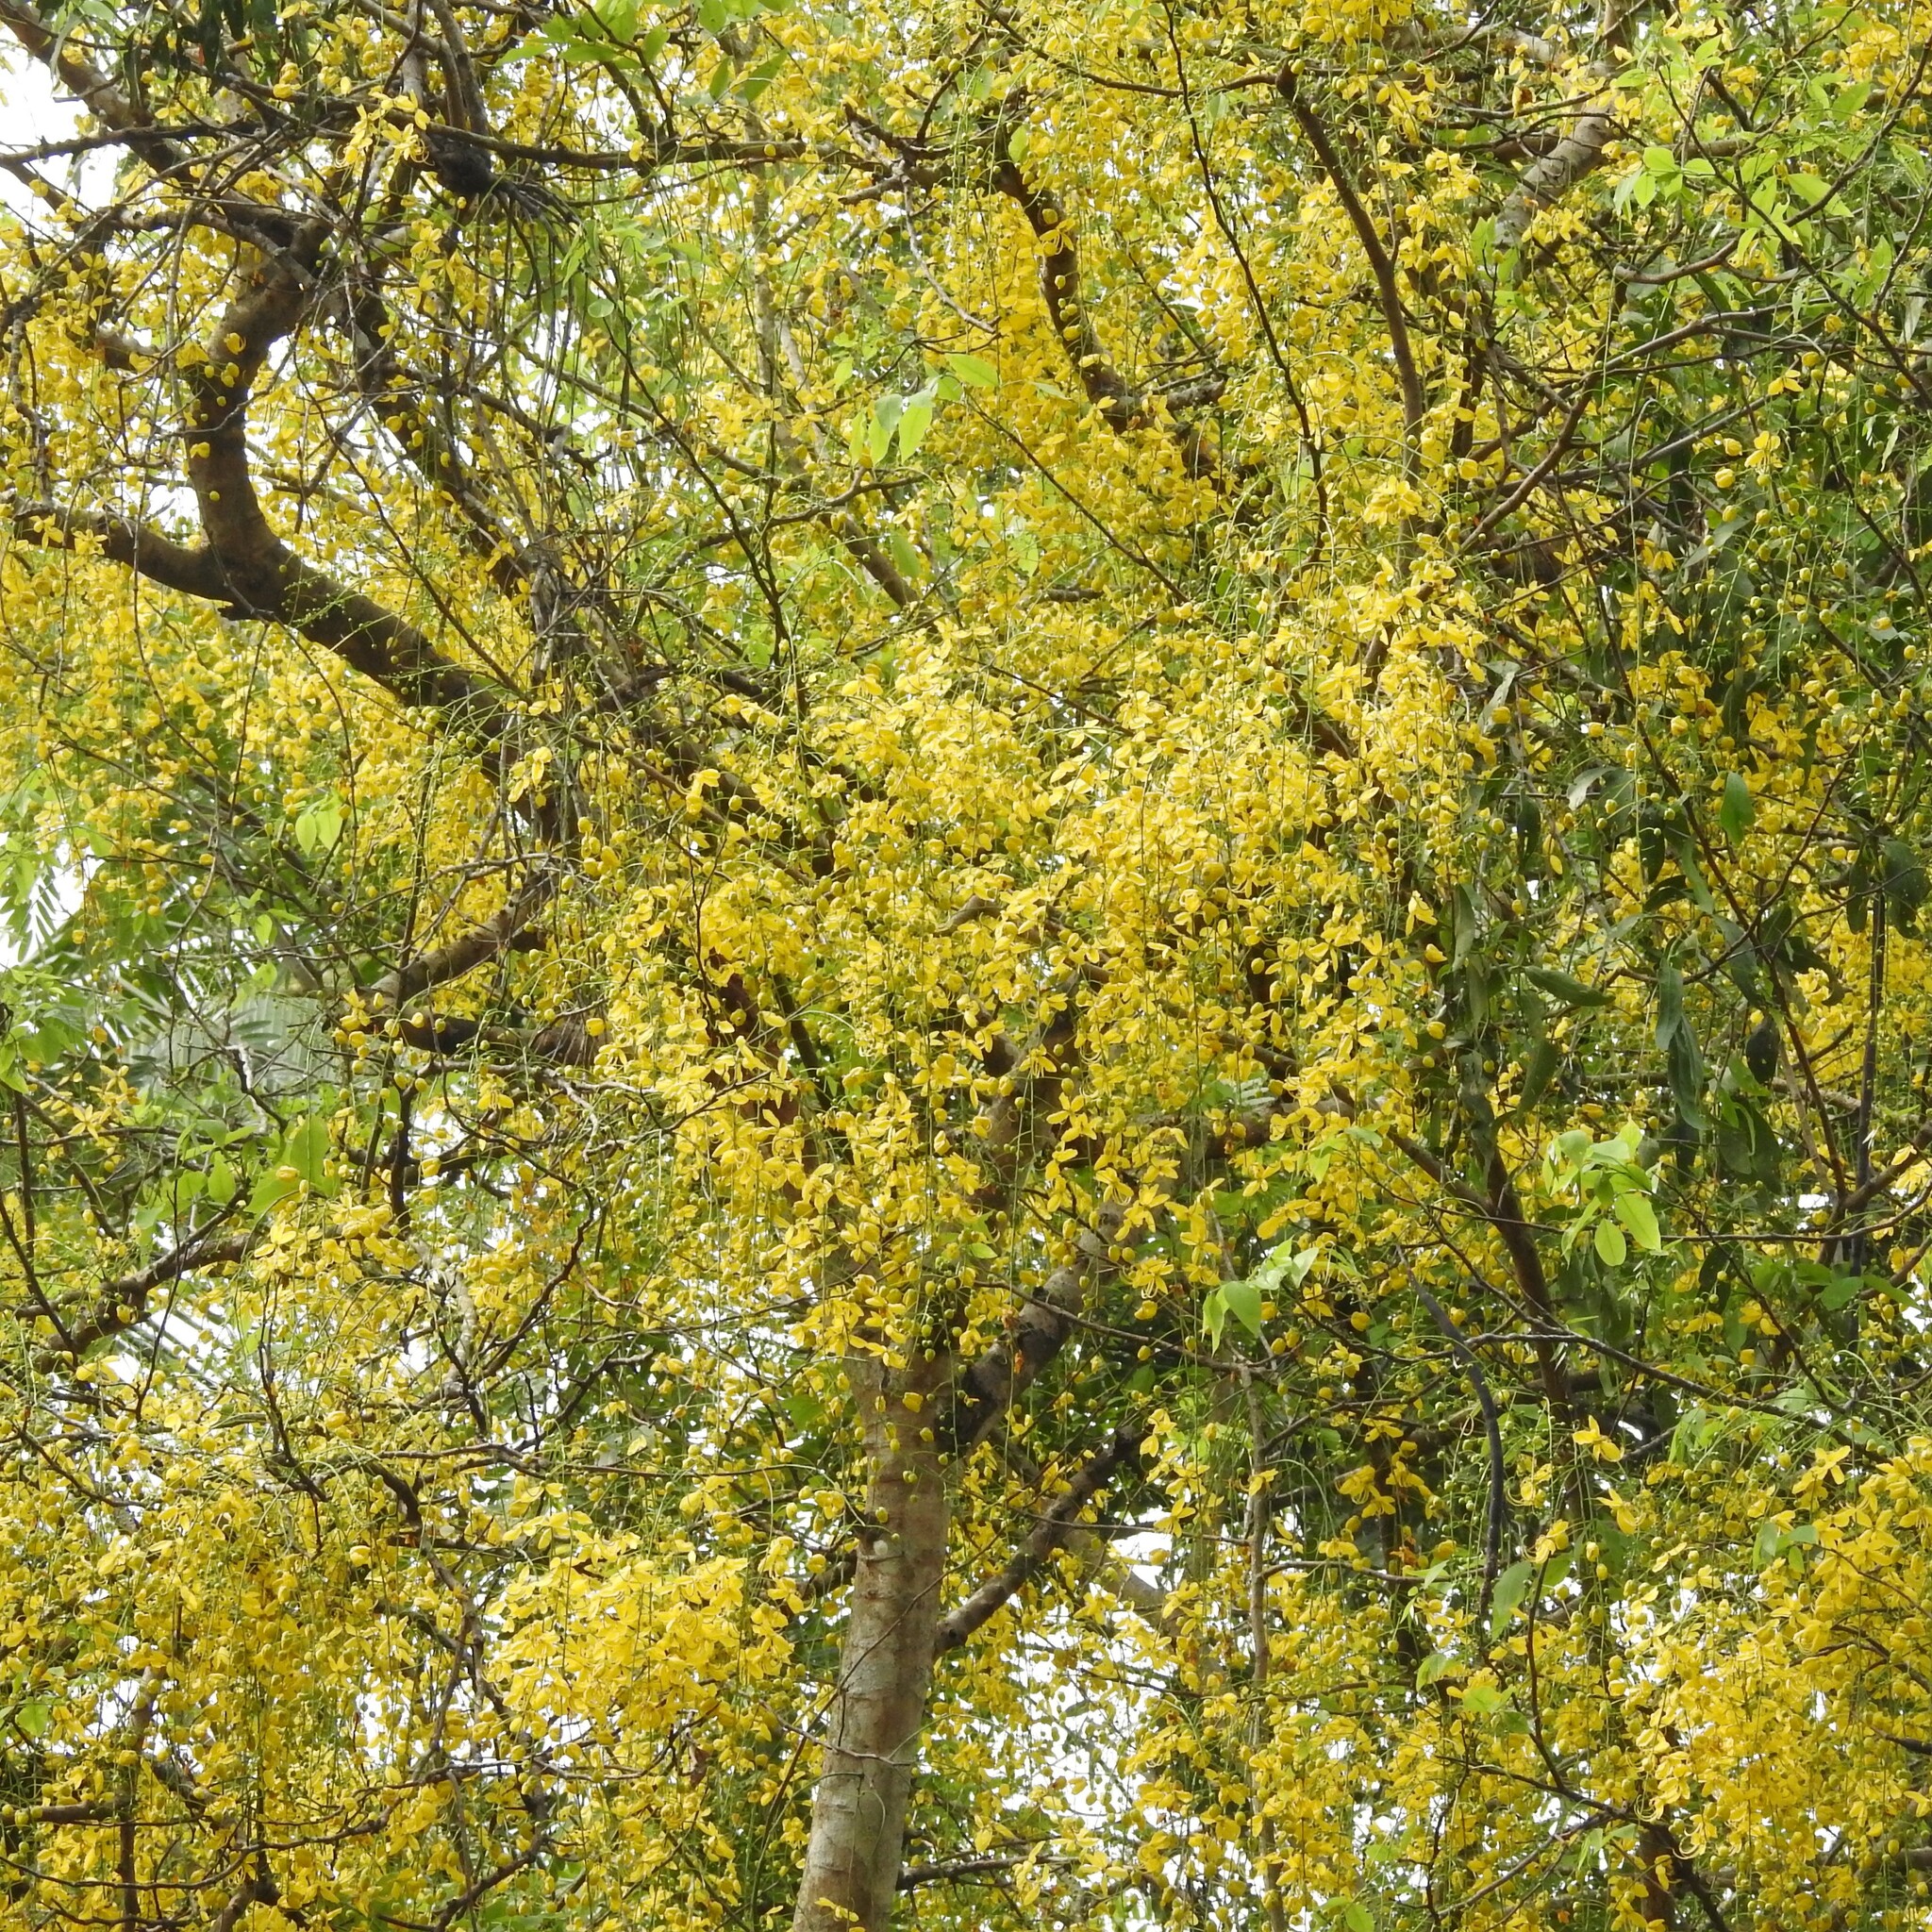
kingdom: Plantae
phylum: Tracheophyta
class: Magnoliopsida
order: Fabales
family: Fabaceae
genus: Cassia
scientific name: Cassia fistula
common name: Golden shower
